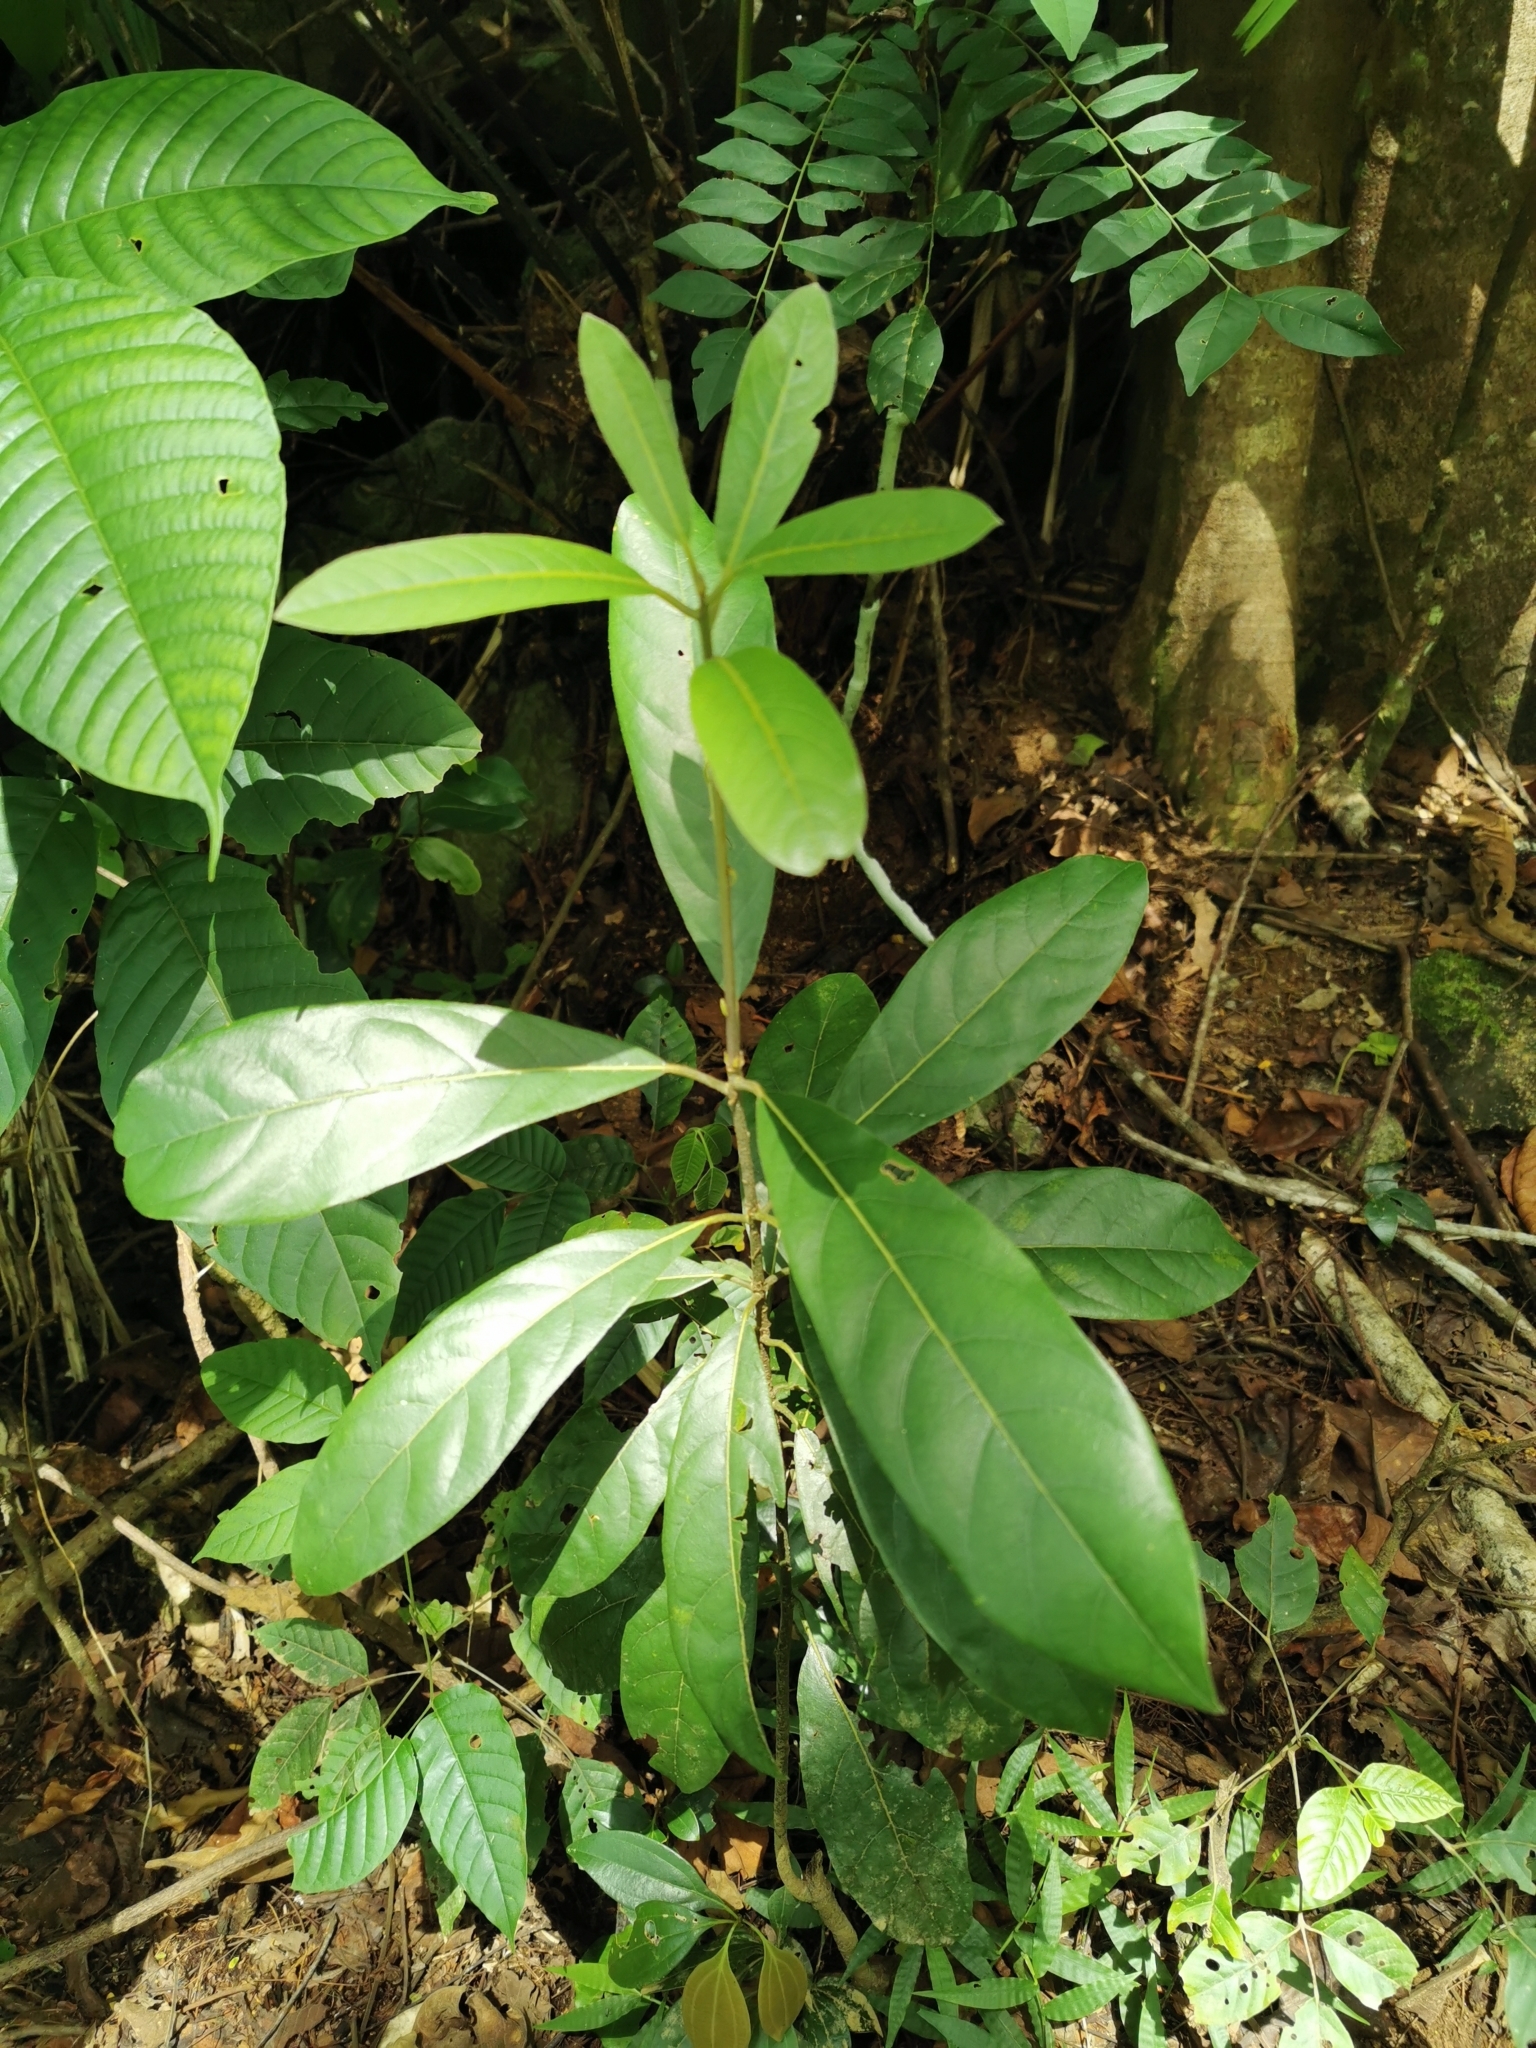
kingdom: Plantae
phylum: Tracheophyta
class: Magnoliopsida
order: Laurales
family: Lauraceae
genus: Litsea
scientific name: Litsea glutinosa
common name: Indian-laurel
